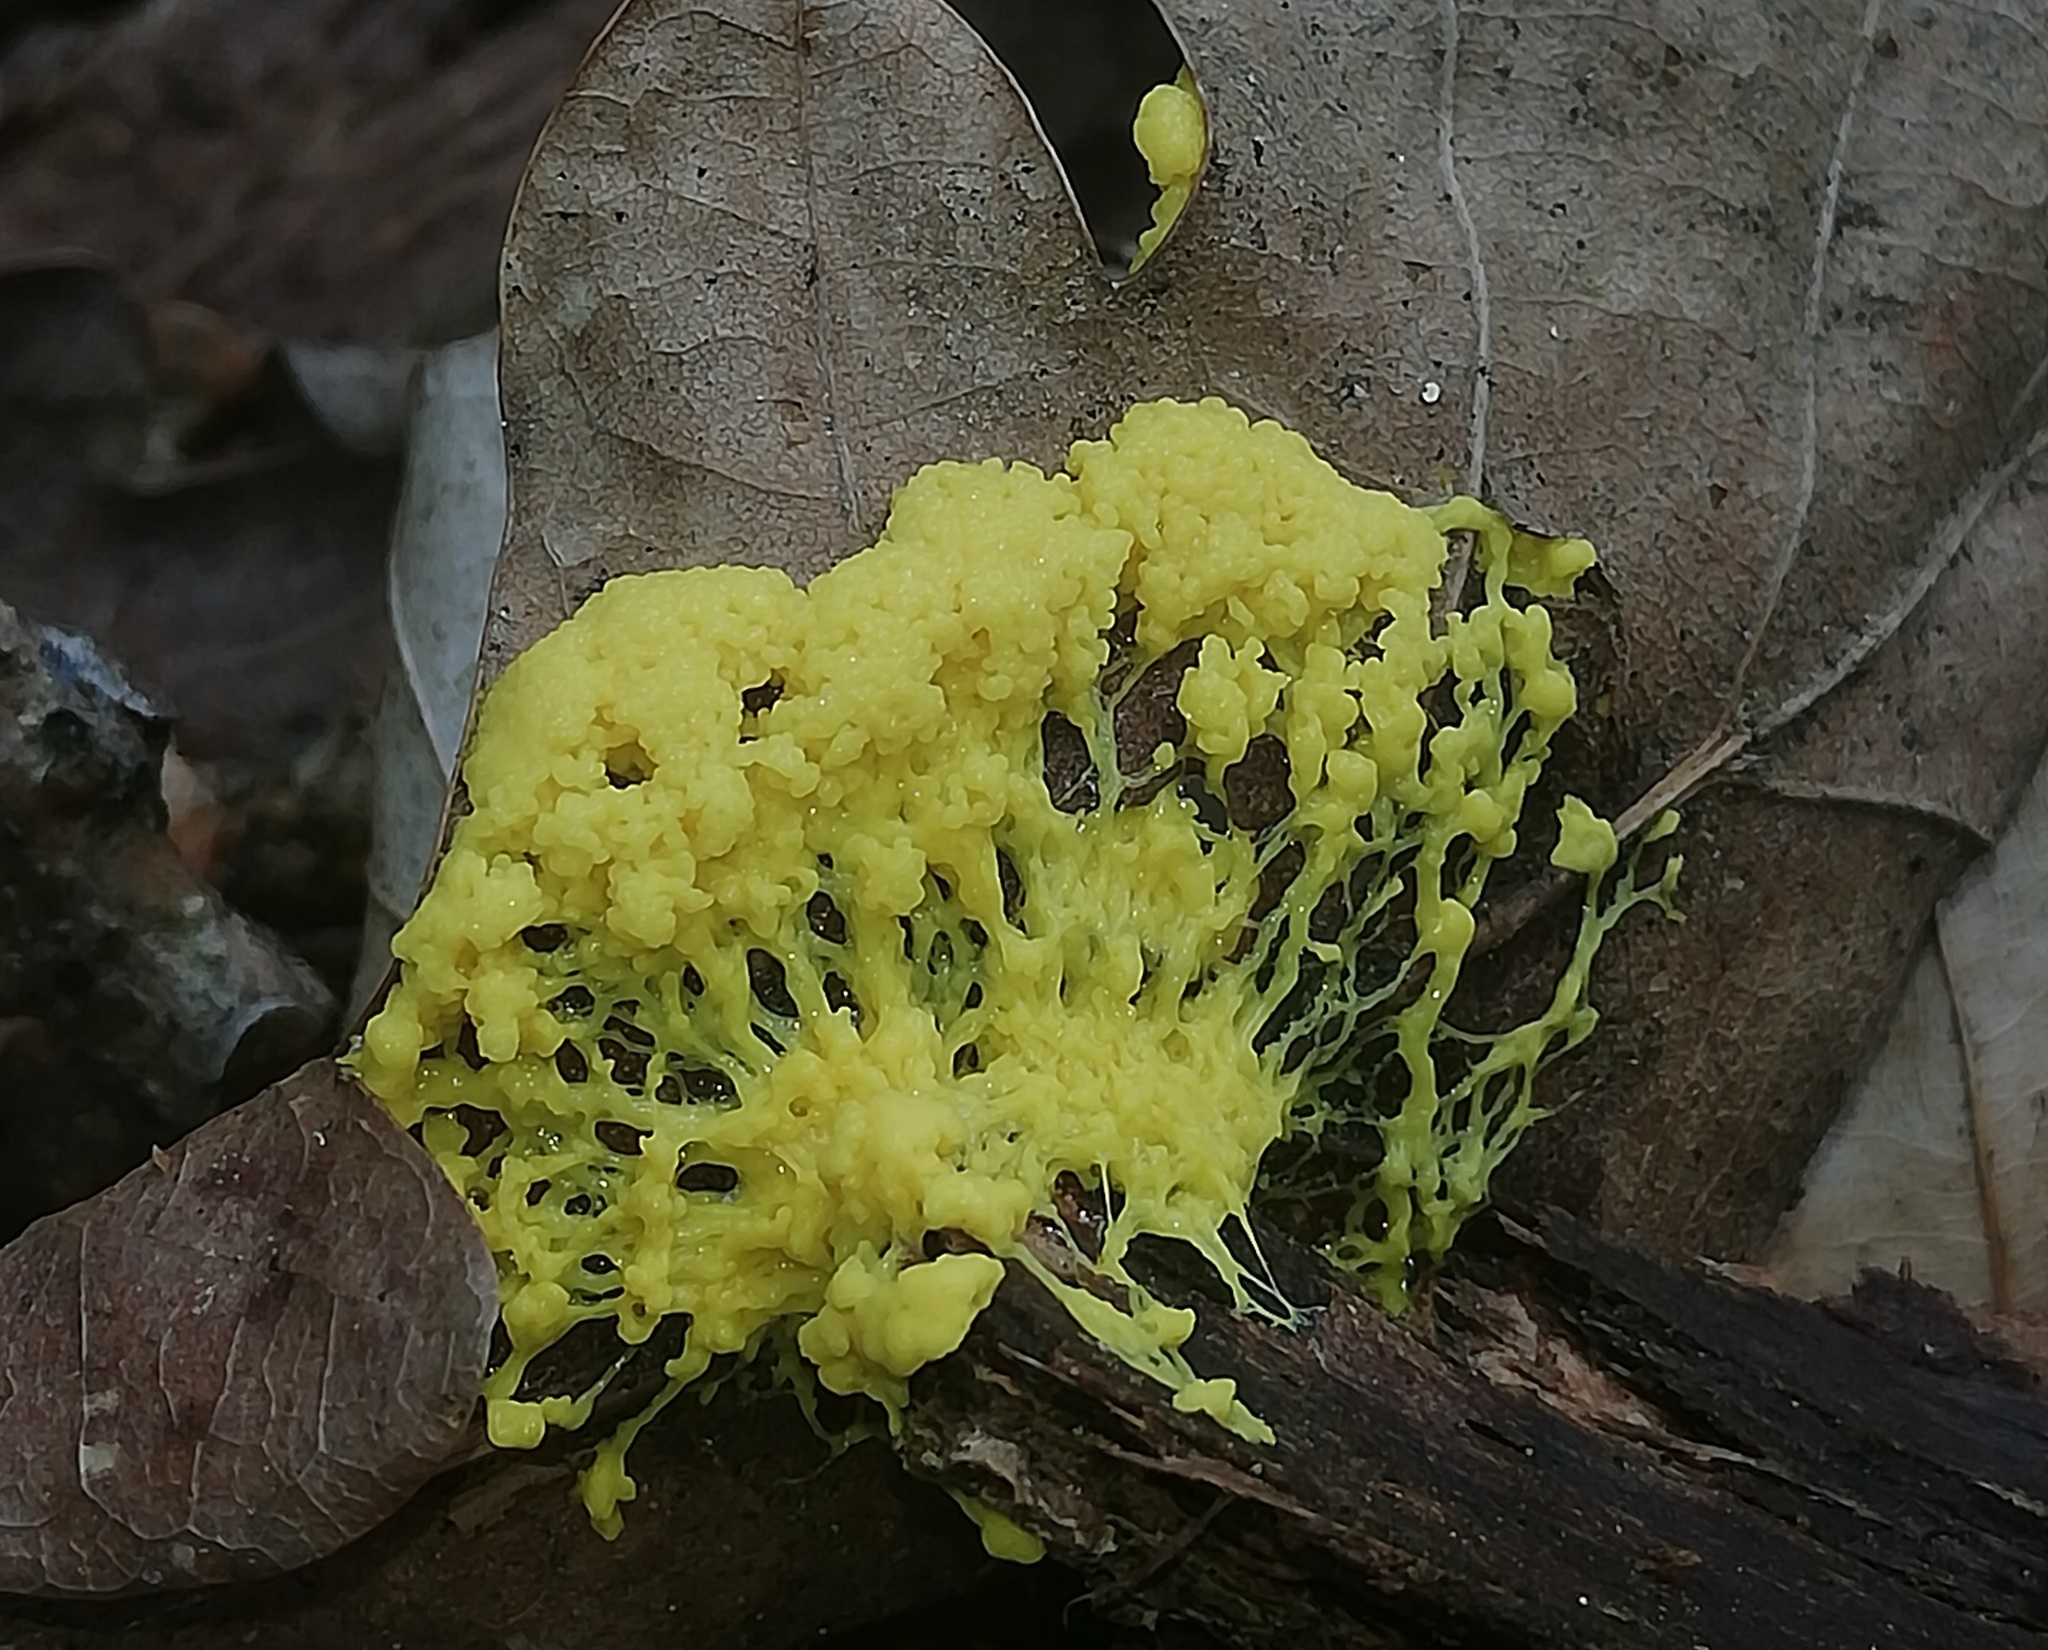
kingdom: Protozoa
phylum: Mycetozoa
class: Myxomycetes
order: Physarales
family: Physaraceae
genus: Fuligo
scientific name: Fuligo septica
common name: Dog vomit slime mold
